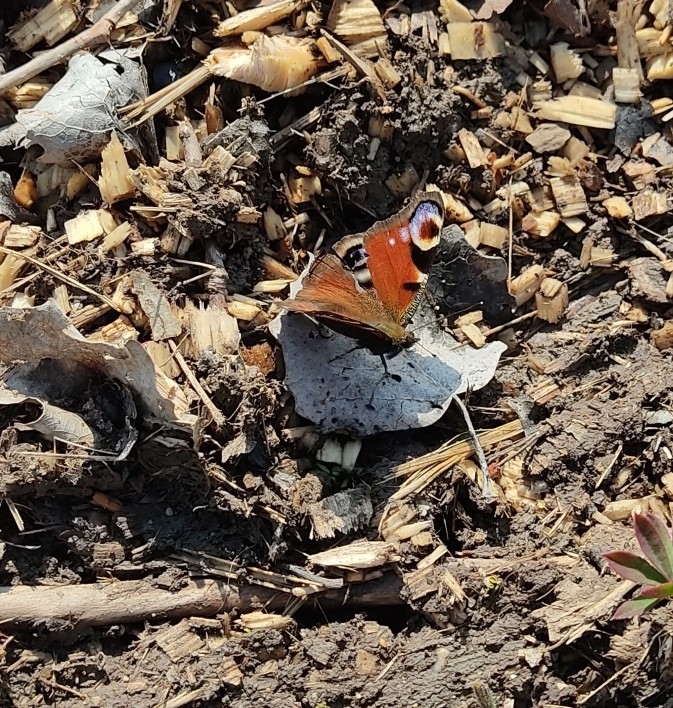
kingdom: Animalia
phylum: Arthropoda
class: Insecta
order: Lepidoptera
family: Nymphalidae
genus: Aglais
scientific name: Aglais io
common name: Peacock
